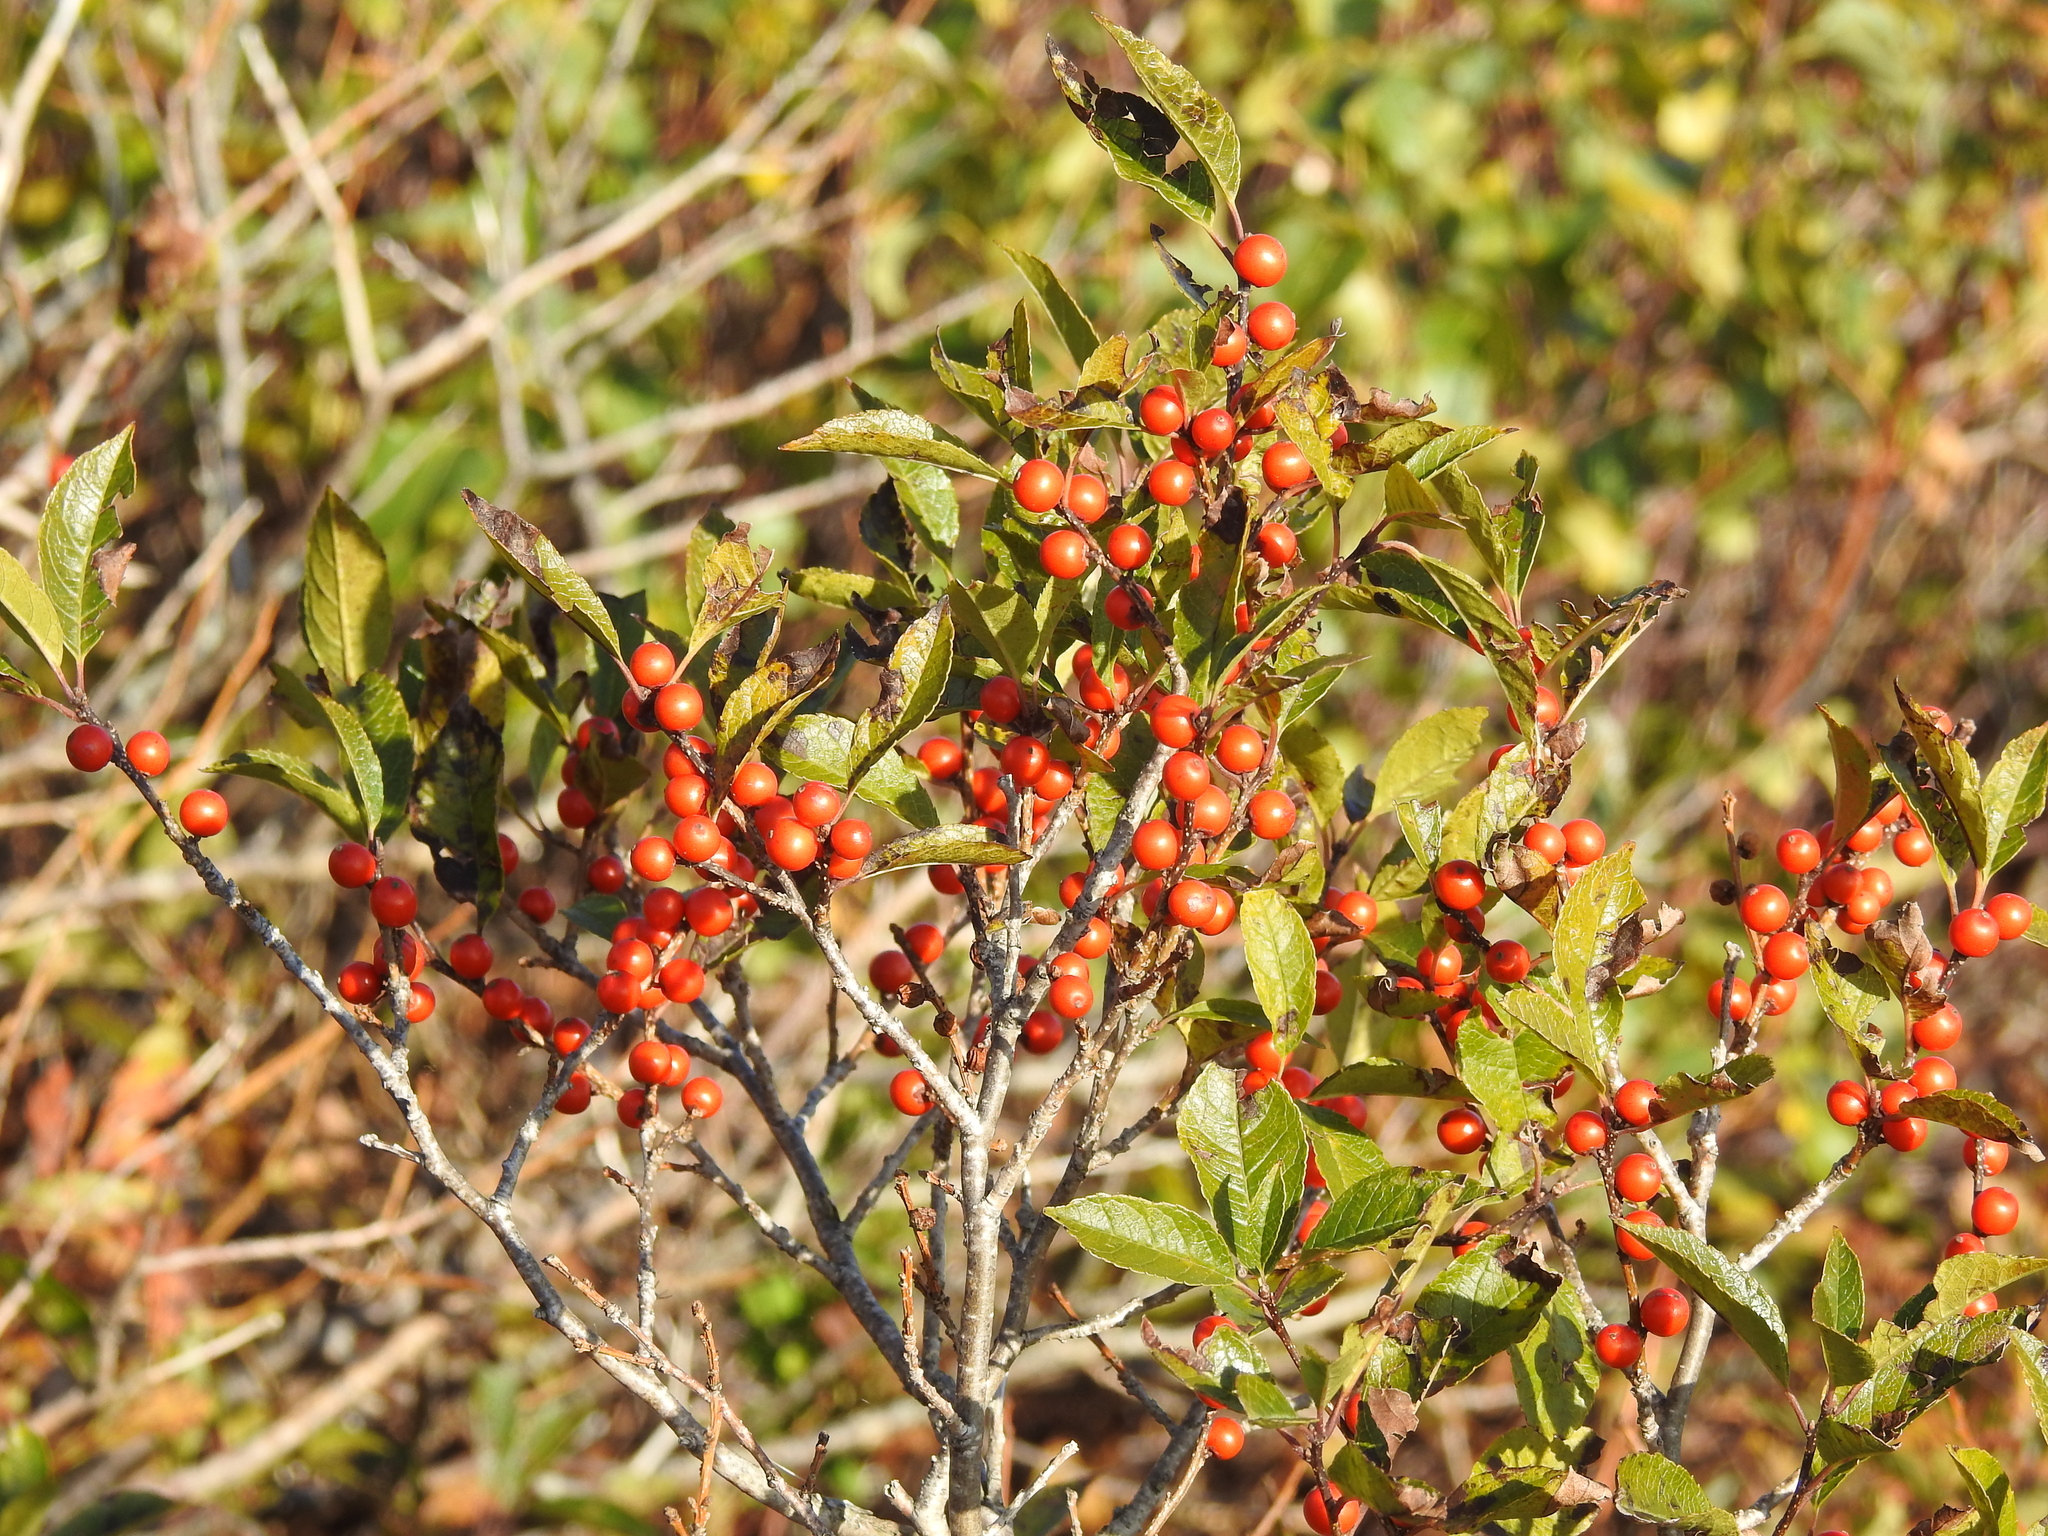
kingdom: Plantae
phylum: Tracheophyta
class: Magnoliopsida
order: Aquifoliales
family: Aquifoliaceae
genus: Ilex
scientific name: Ilex verticillata
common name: Virginia winterberry
